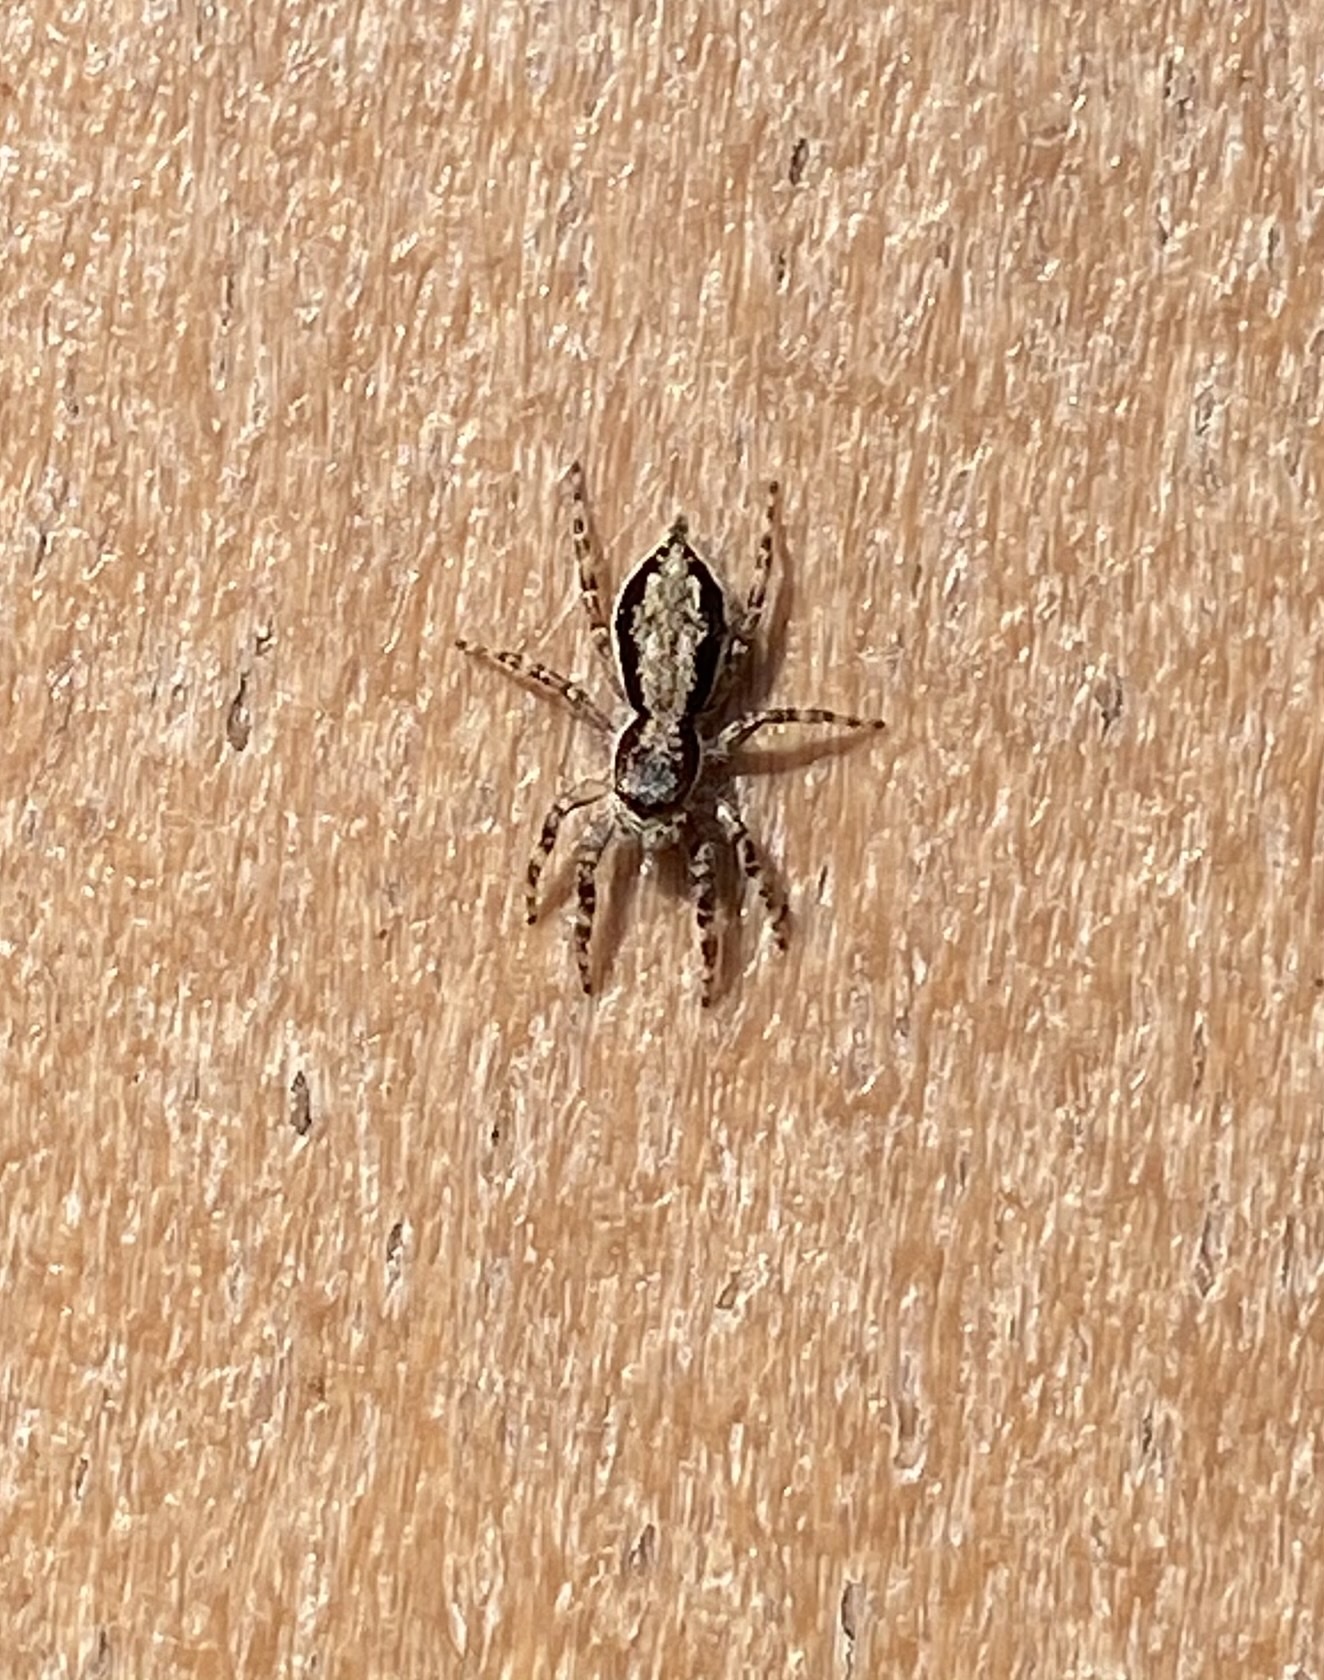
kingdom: Animalia
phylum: Arthropoda
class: Arachnida
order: Araneae
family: Salticidae
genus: Menemerus
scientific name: Menemerus bivittatus
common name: Gray wall jumper
